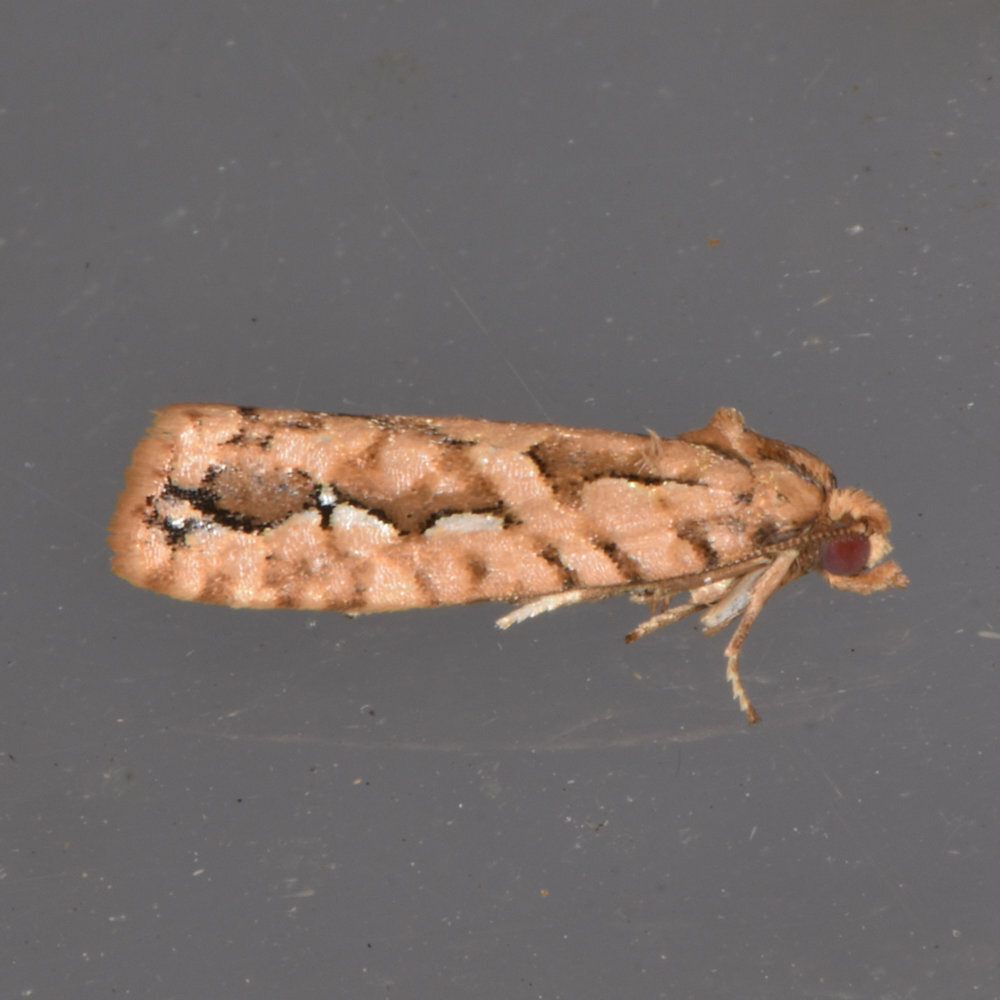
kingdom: Animalia
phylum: Arthropoda
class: Insecta
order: Lepidoptera
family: Tortricidae
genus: Diedra
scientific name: Diedra cockerellana
